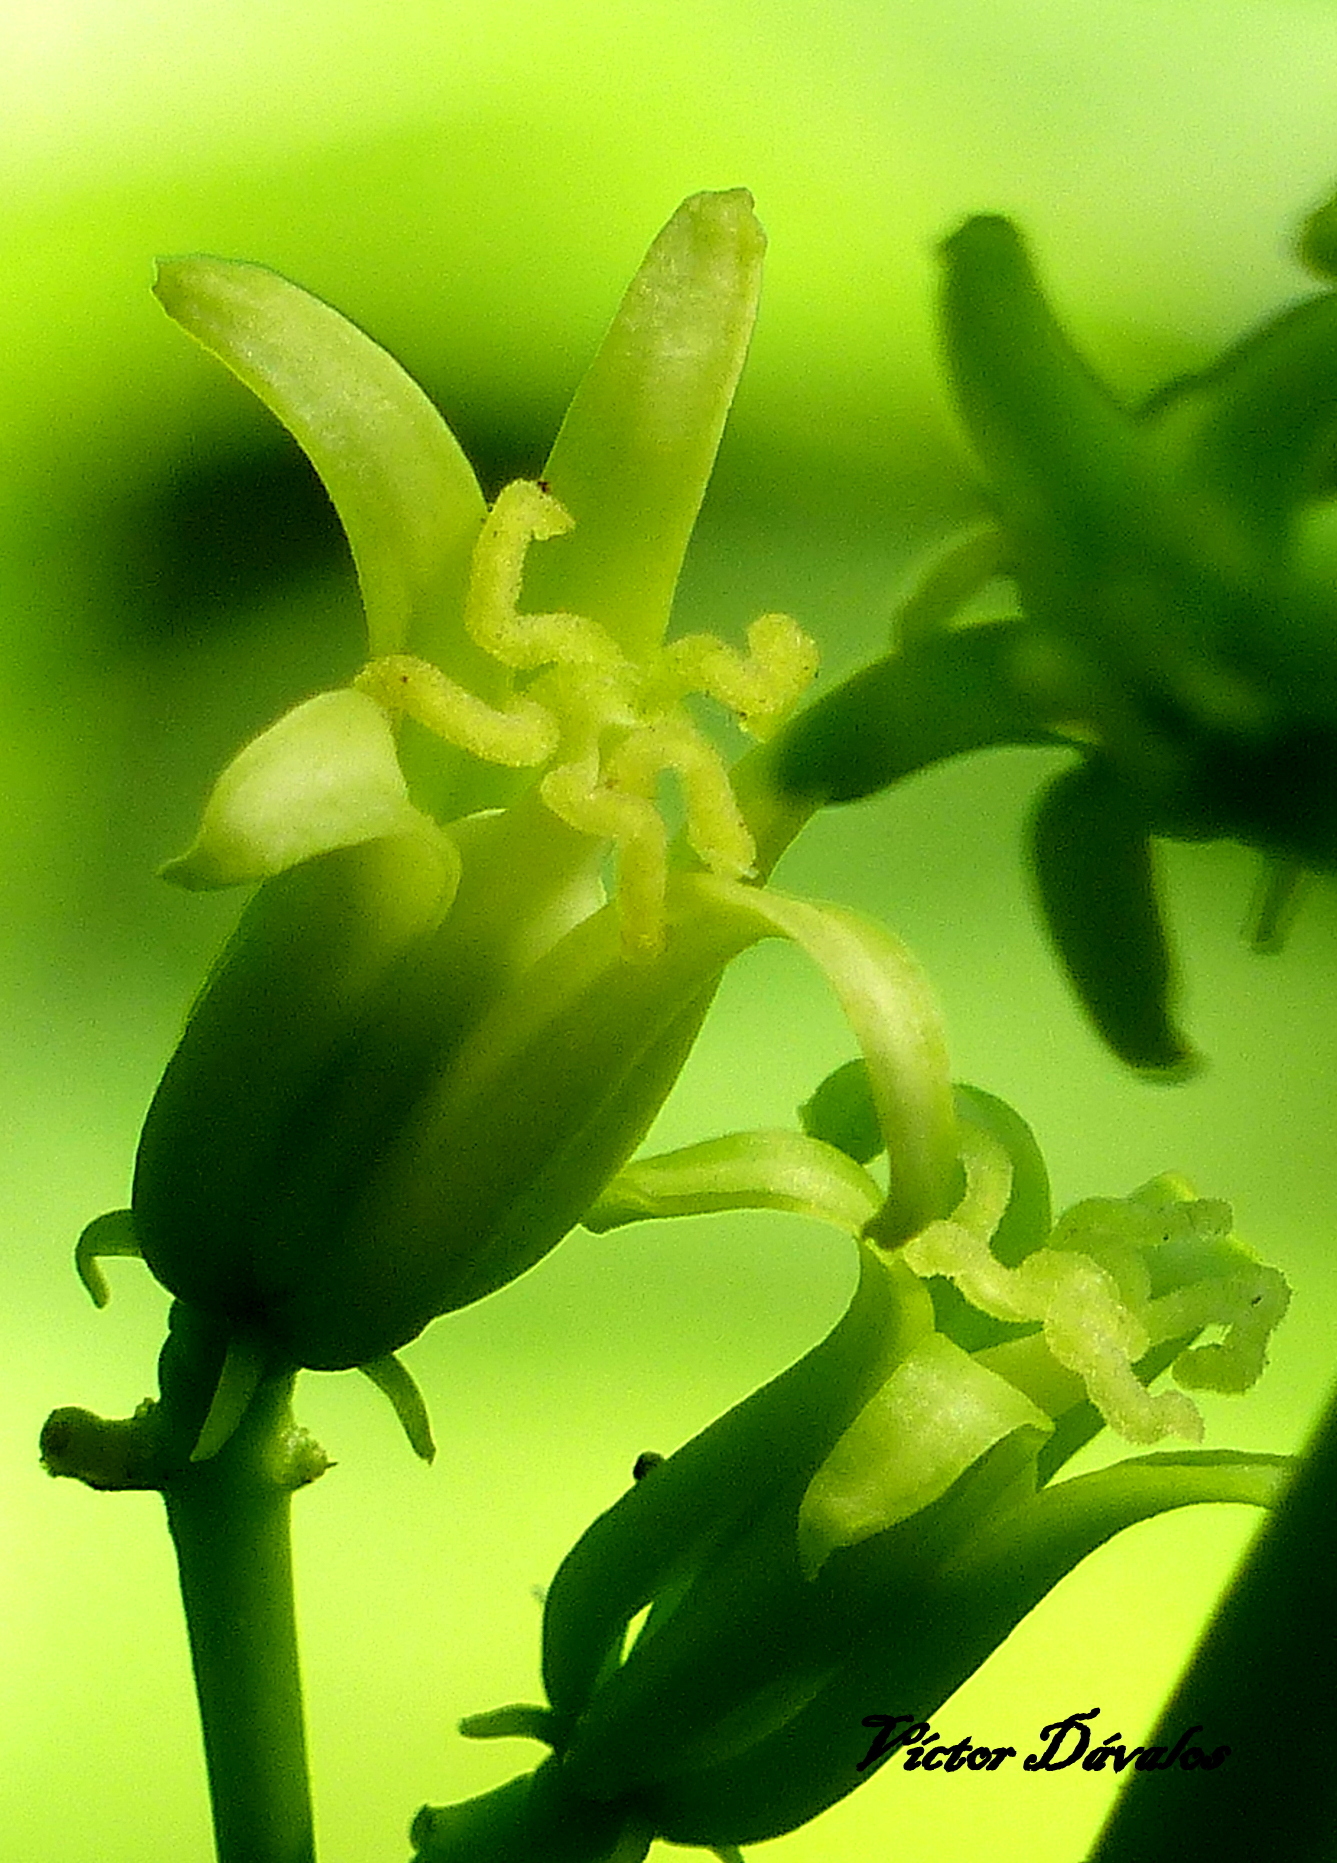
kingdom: Plantae
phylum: Tracheophyta
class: Magnoliopsida
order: Brassicales
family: Caricaceae
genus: Vasconcellea
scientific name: Vasconcellea quercifolia
